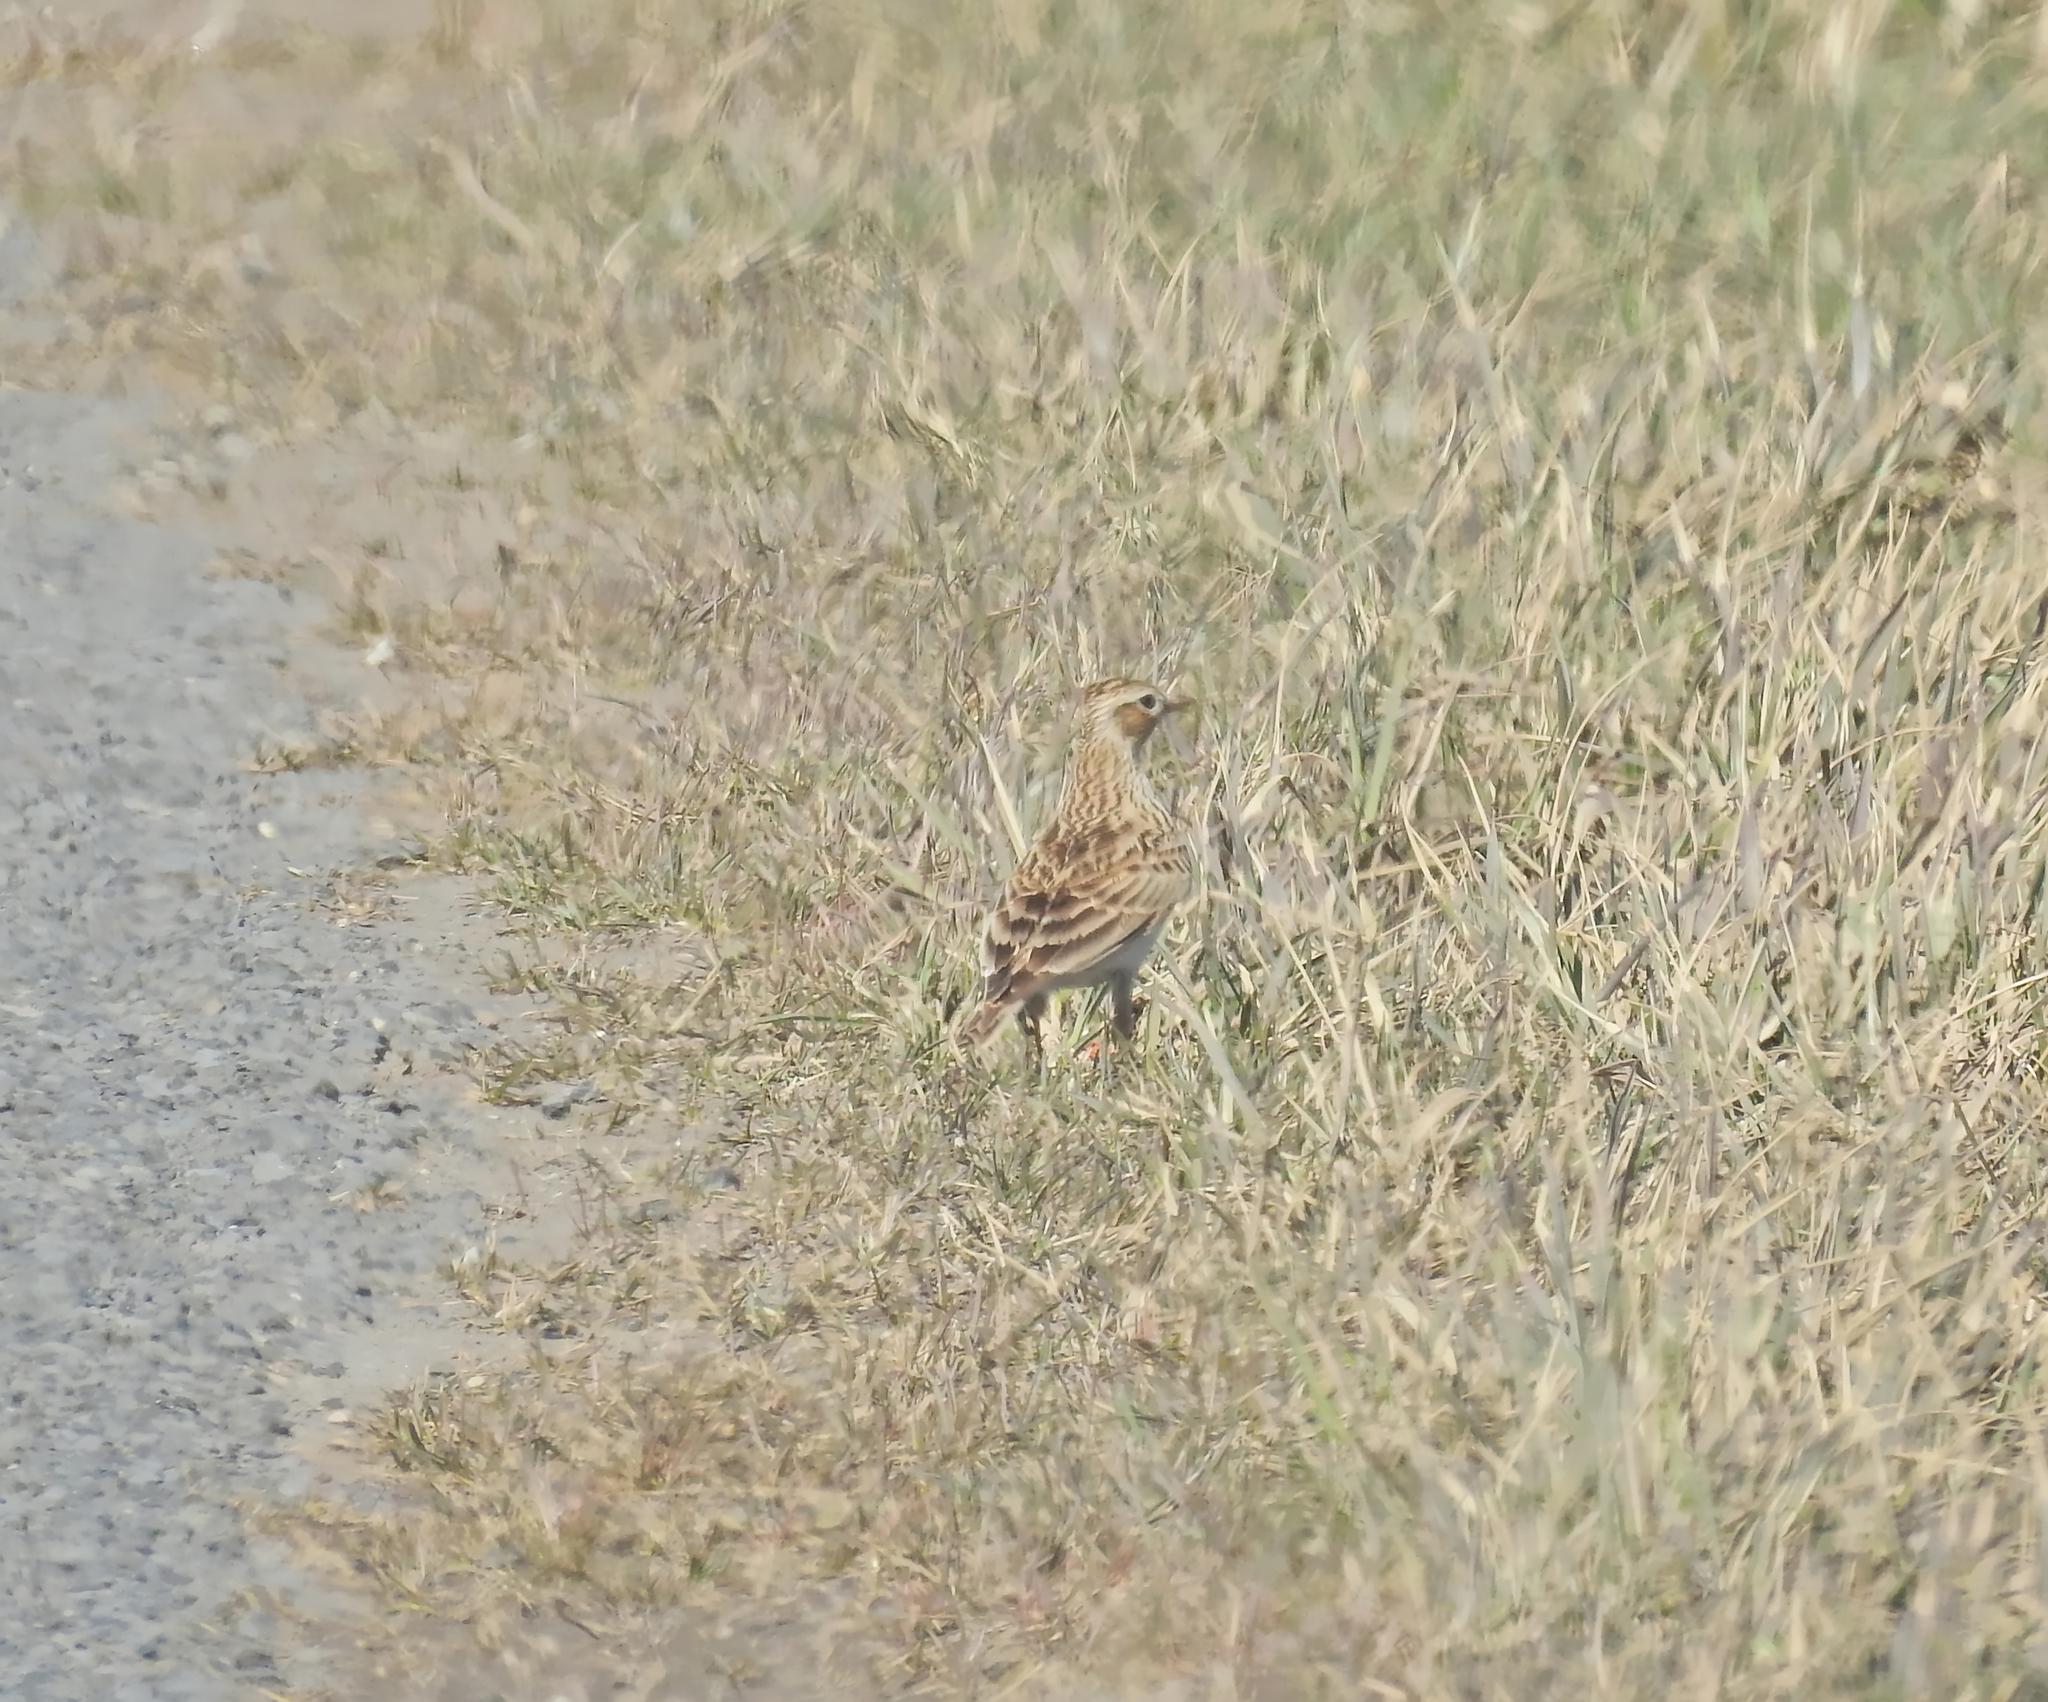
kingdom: Animalia
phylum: Chordata
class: Aves
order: Passeriformes
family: Alaudidae
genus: Alauda
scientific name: Alauda arvensis
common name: Eurasian skylark
